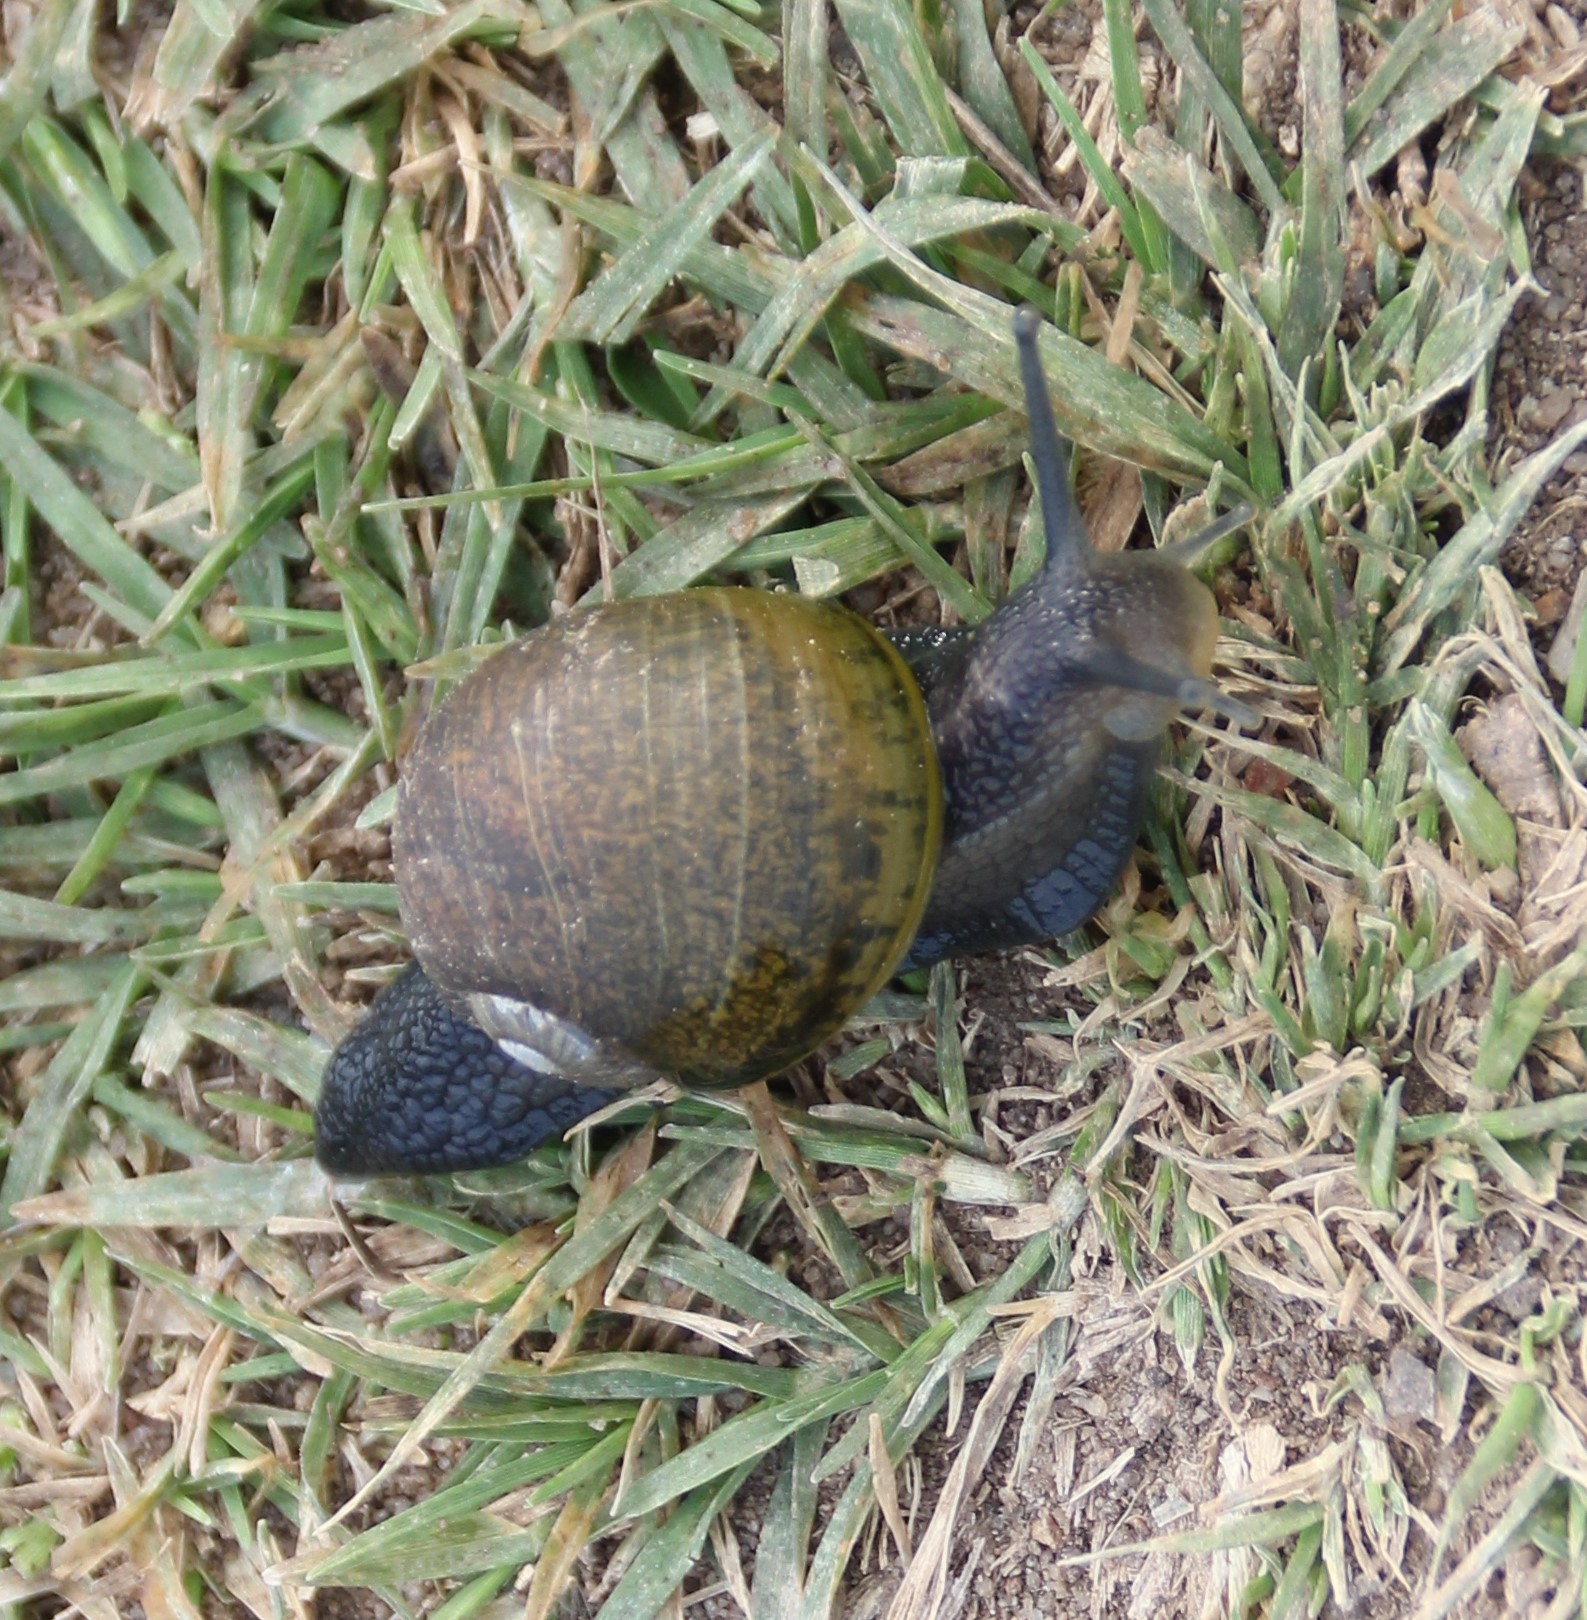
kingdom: Animalia
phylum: Mollusca
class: Gastropoda
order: Stylommatophora
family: Helicidae
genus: Cantareus
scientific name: Cantareus apertus
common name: Green gardensnail
